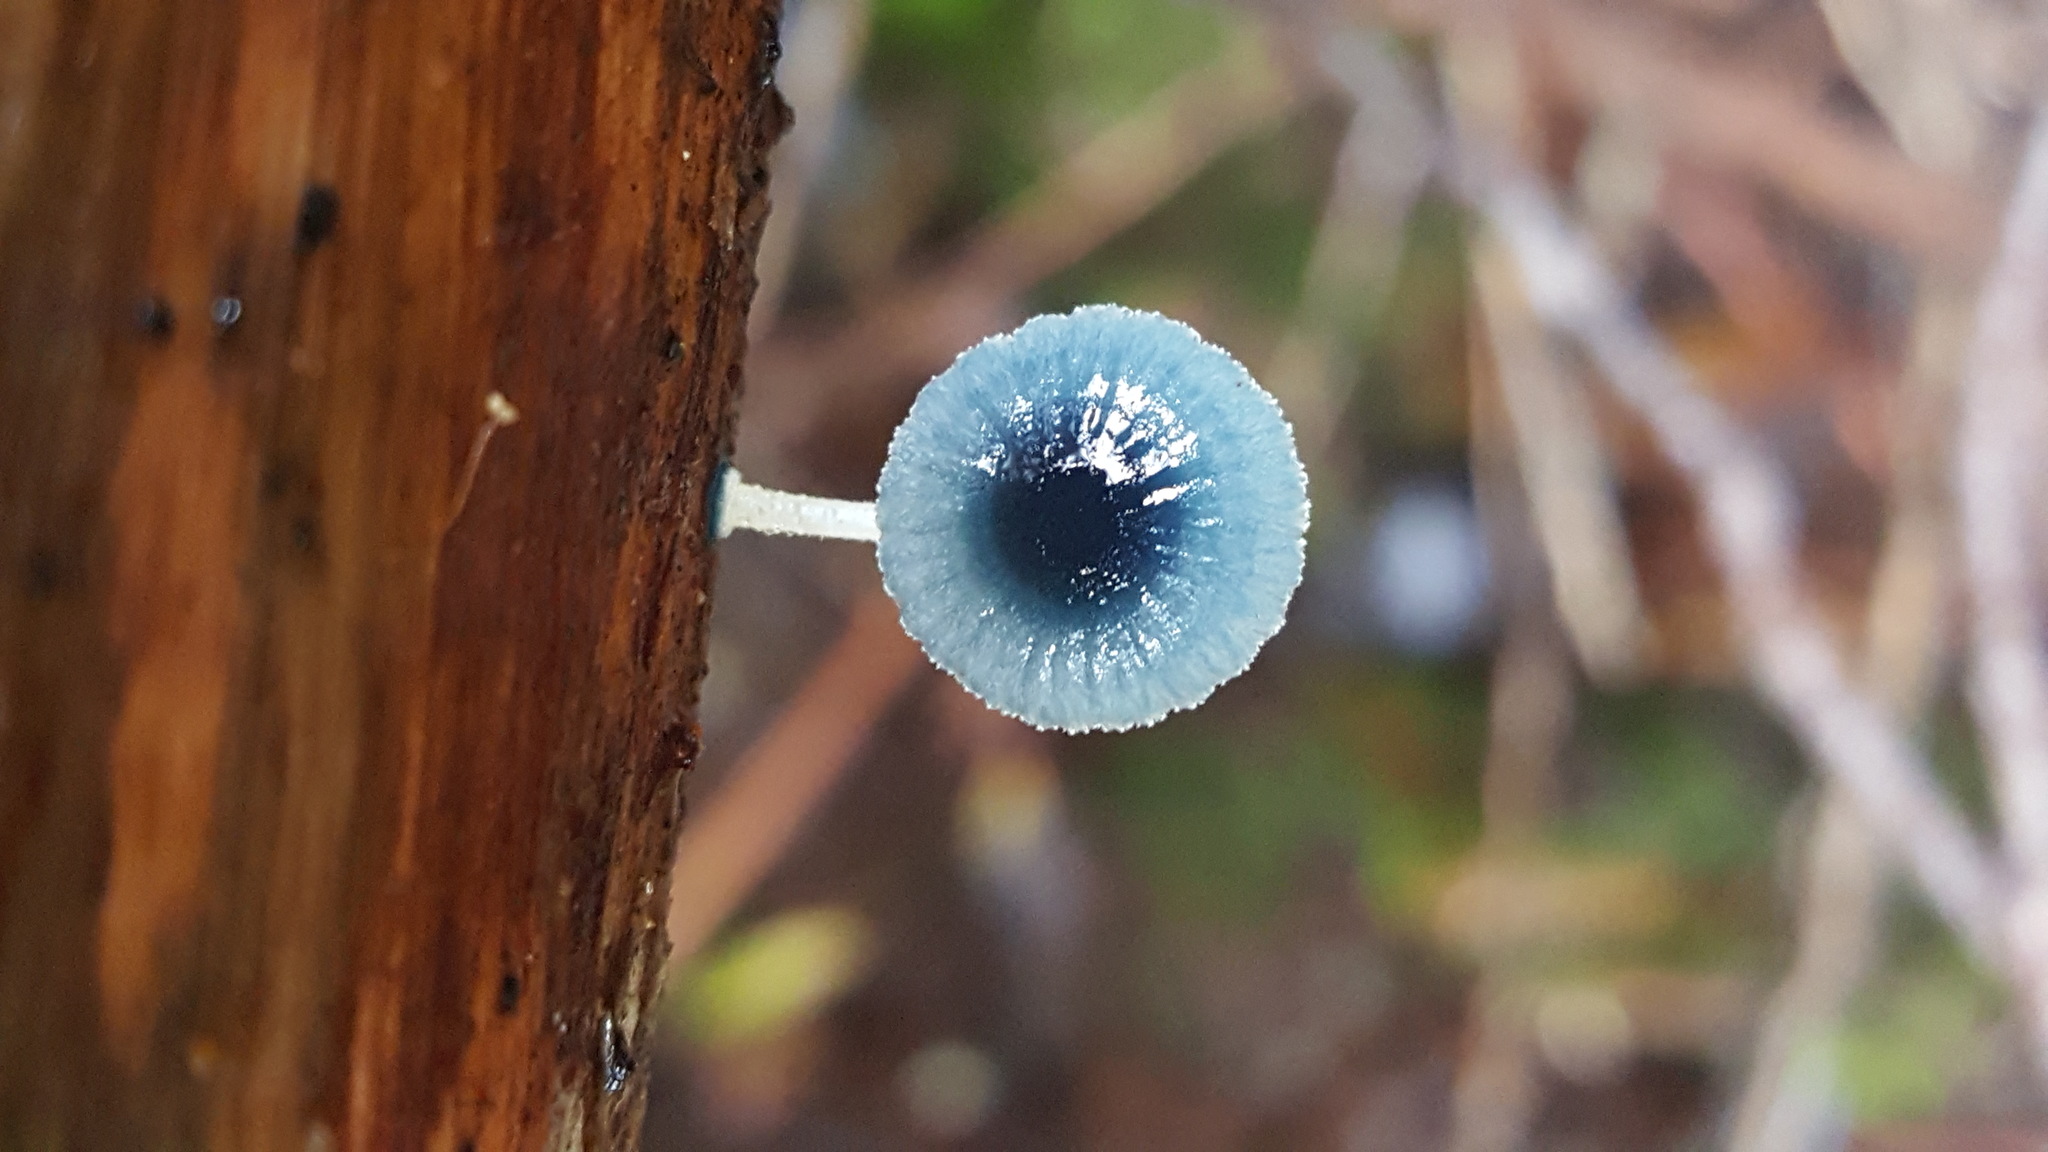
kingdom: Fungi
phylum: Basidiomycota
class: Agaricomycetes
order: Agaricales
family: Mycenaceae
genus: Mycena
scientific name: Mycena interrupta
